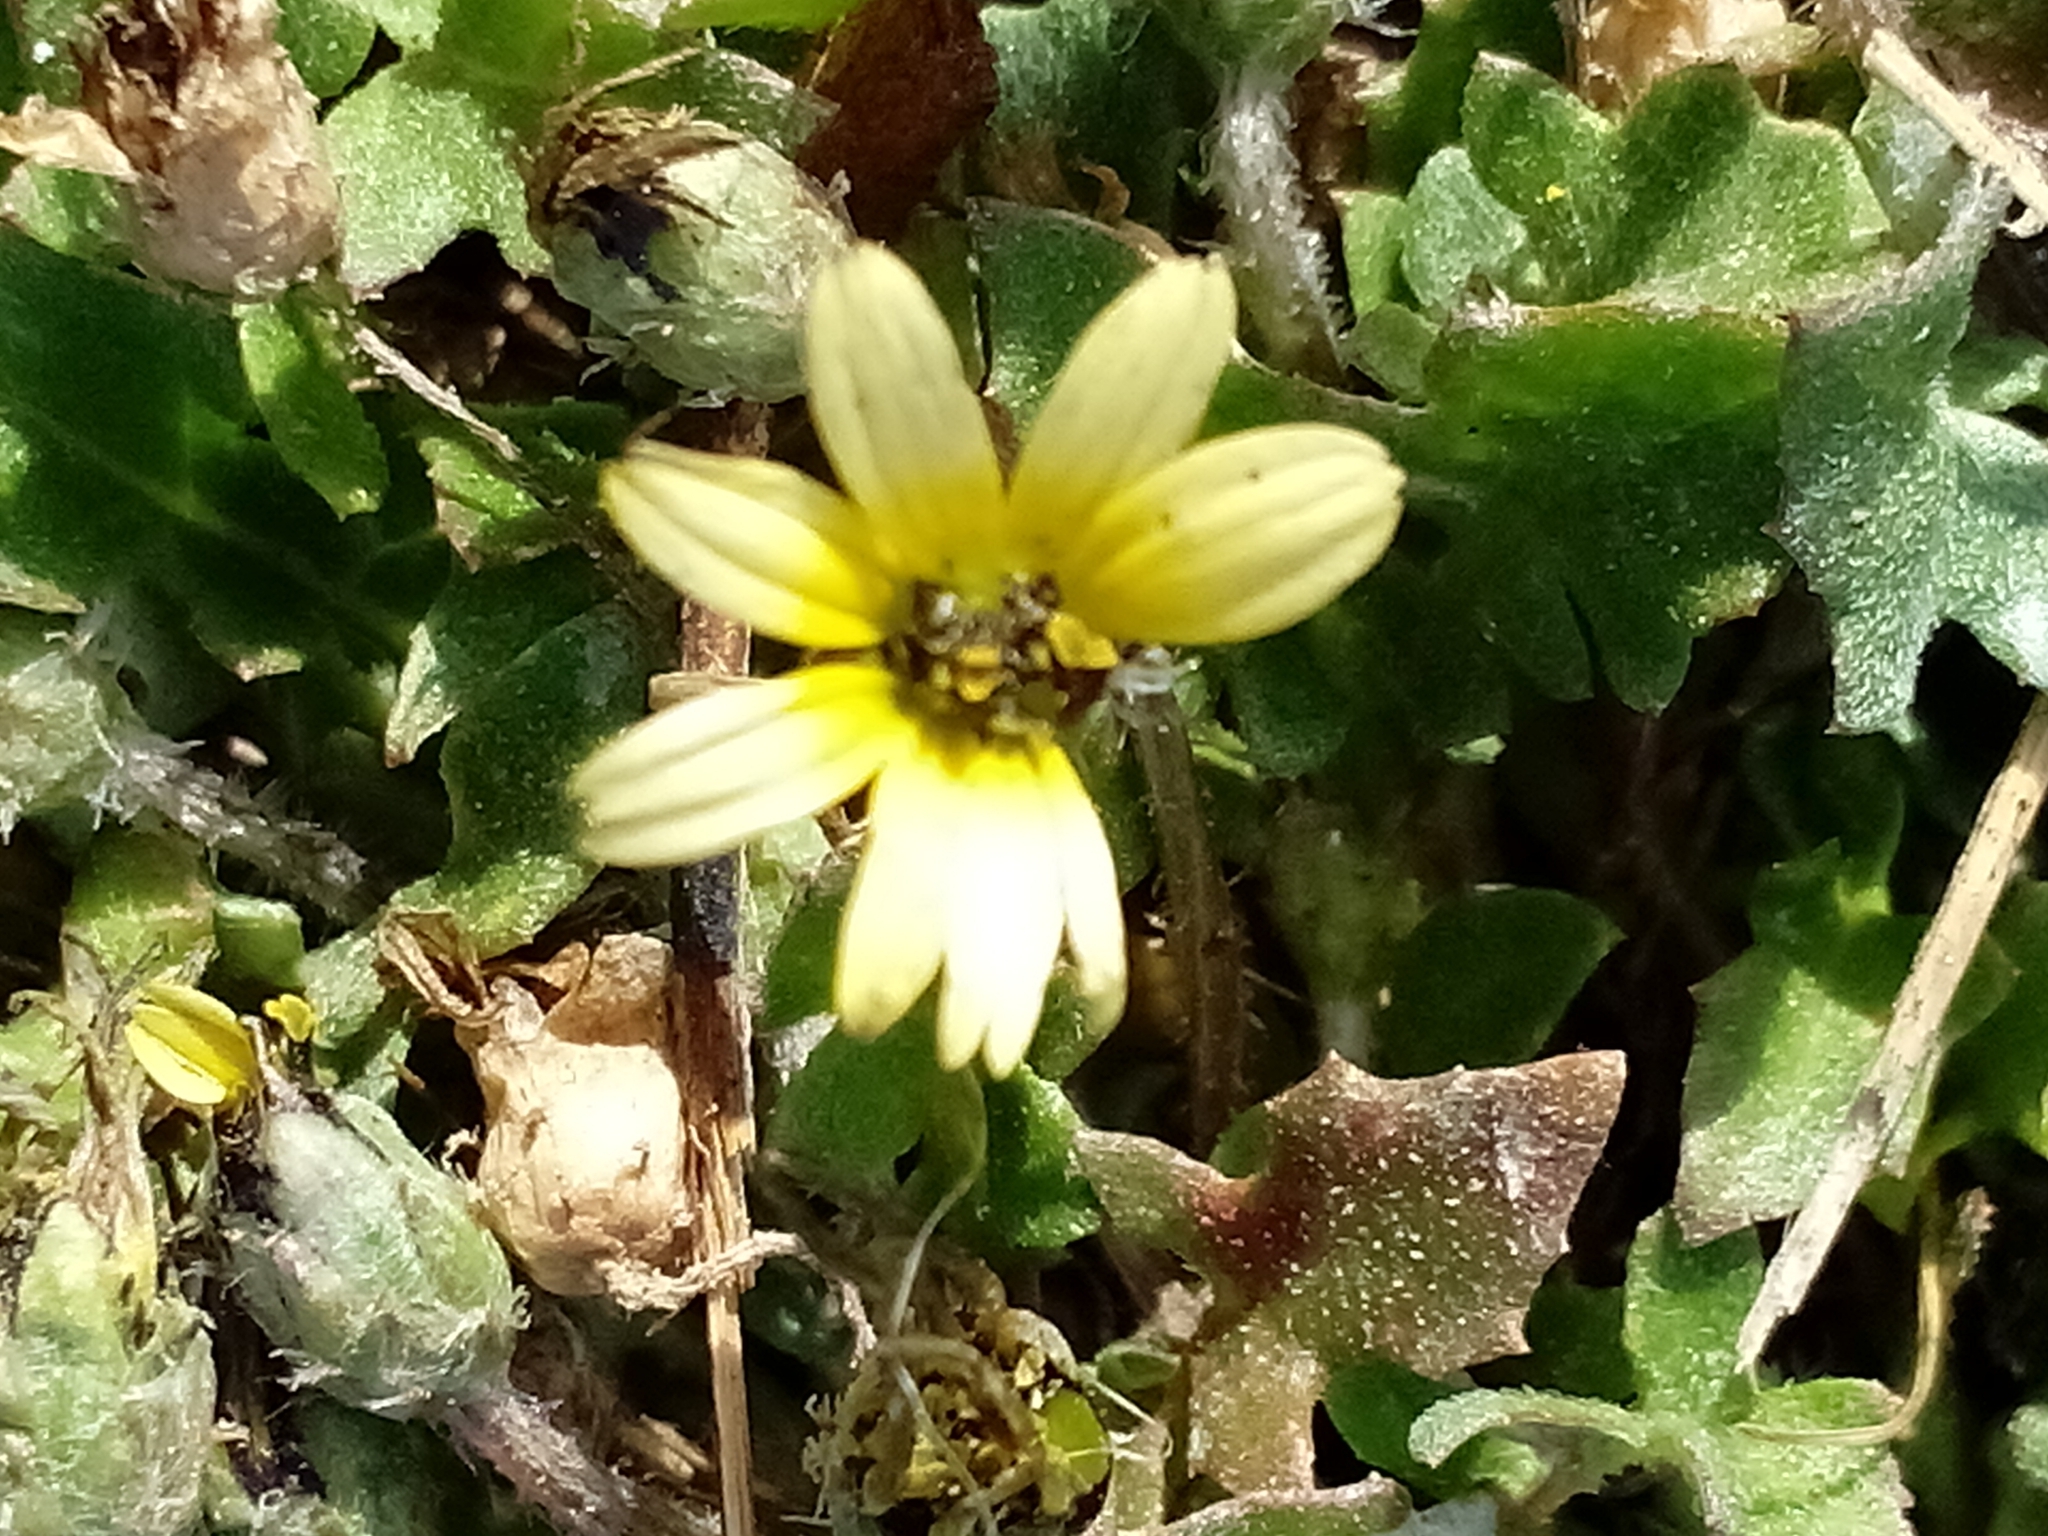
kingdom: Plantae
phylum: Tracheophyta
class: Magnoliopsida
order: Asterales
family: Asteraceae
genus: Arctotheca
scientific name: Arctotheca calendula
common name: Capeweed
